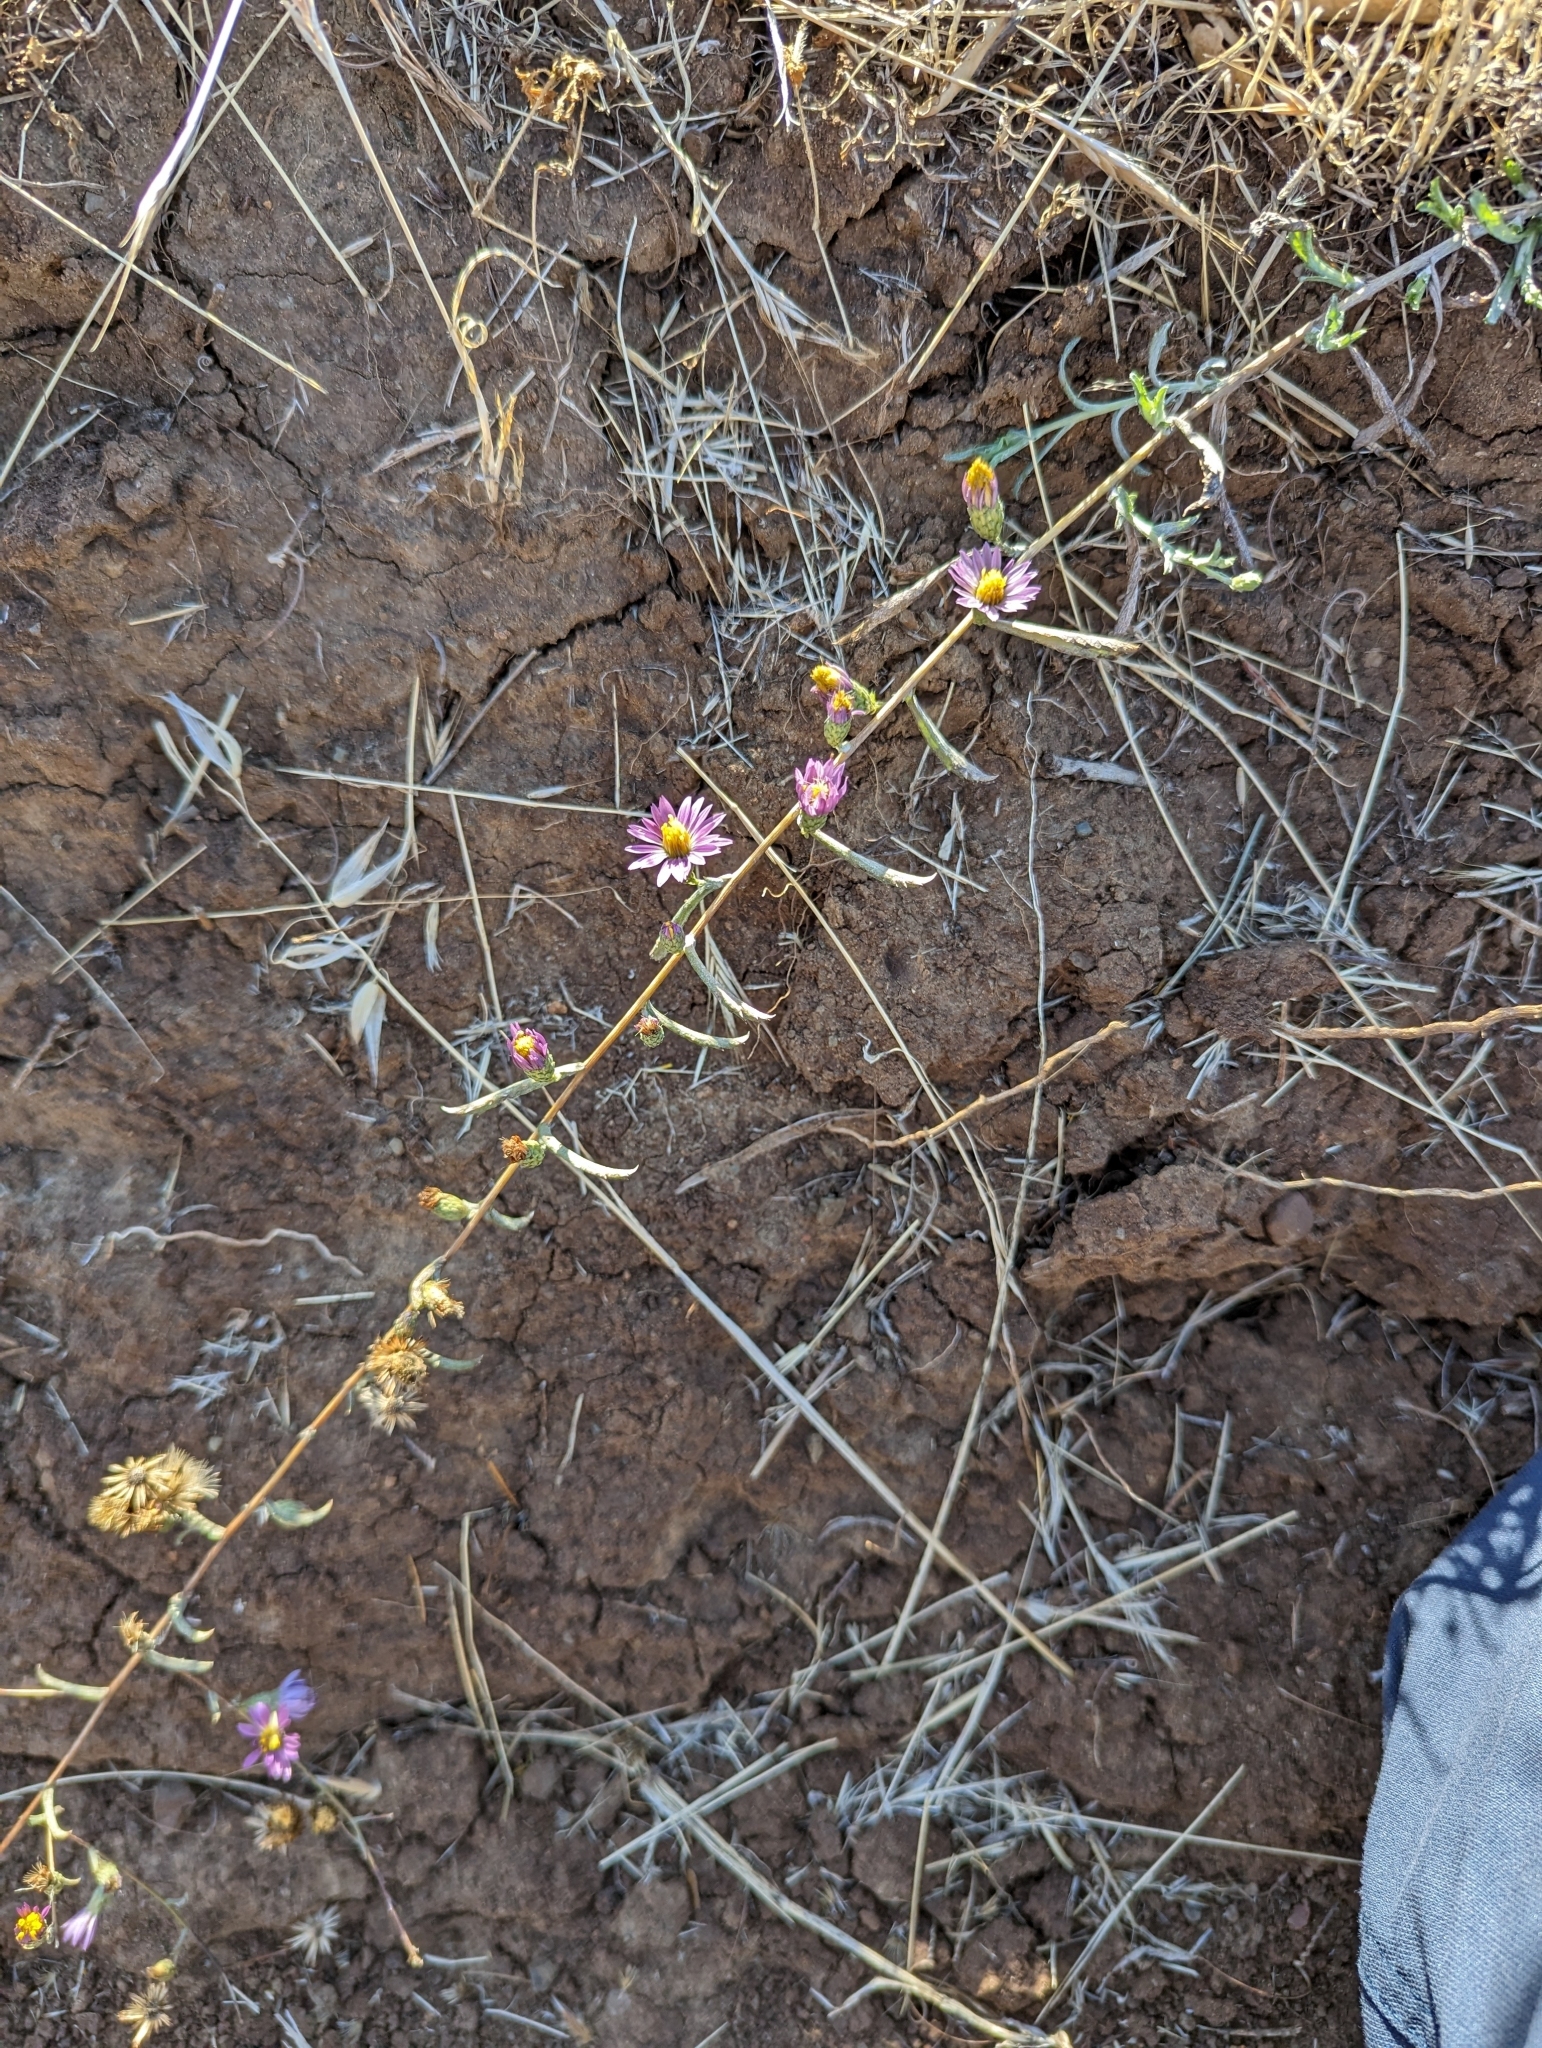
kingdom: Plantae
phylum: Tracheophyta
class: Magnoliopsida
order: Asterales
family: Asteraceae
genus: Corethrogyne
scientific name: Corethrogyne filaginifolia
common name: Sand-aster
